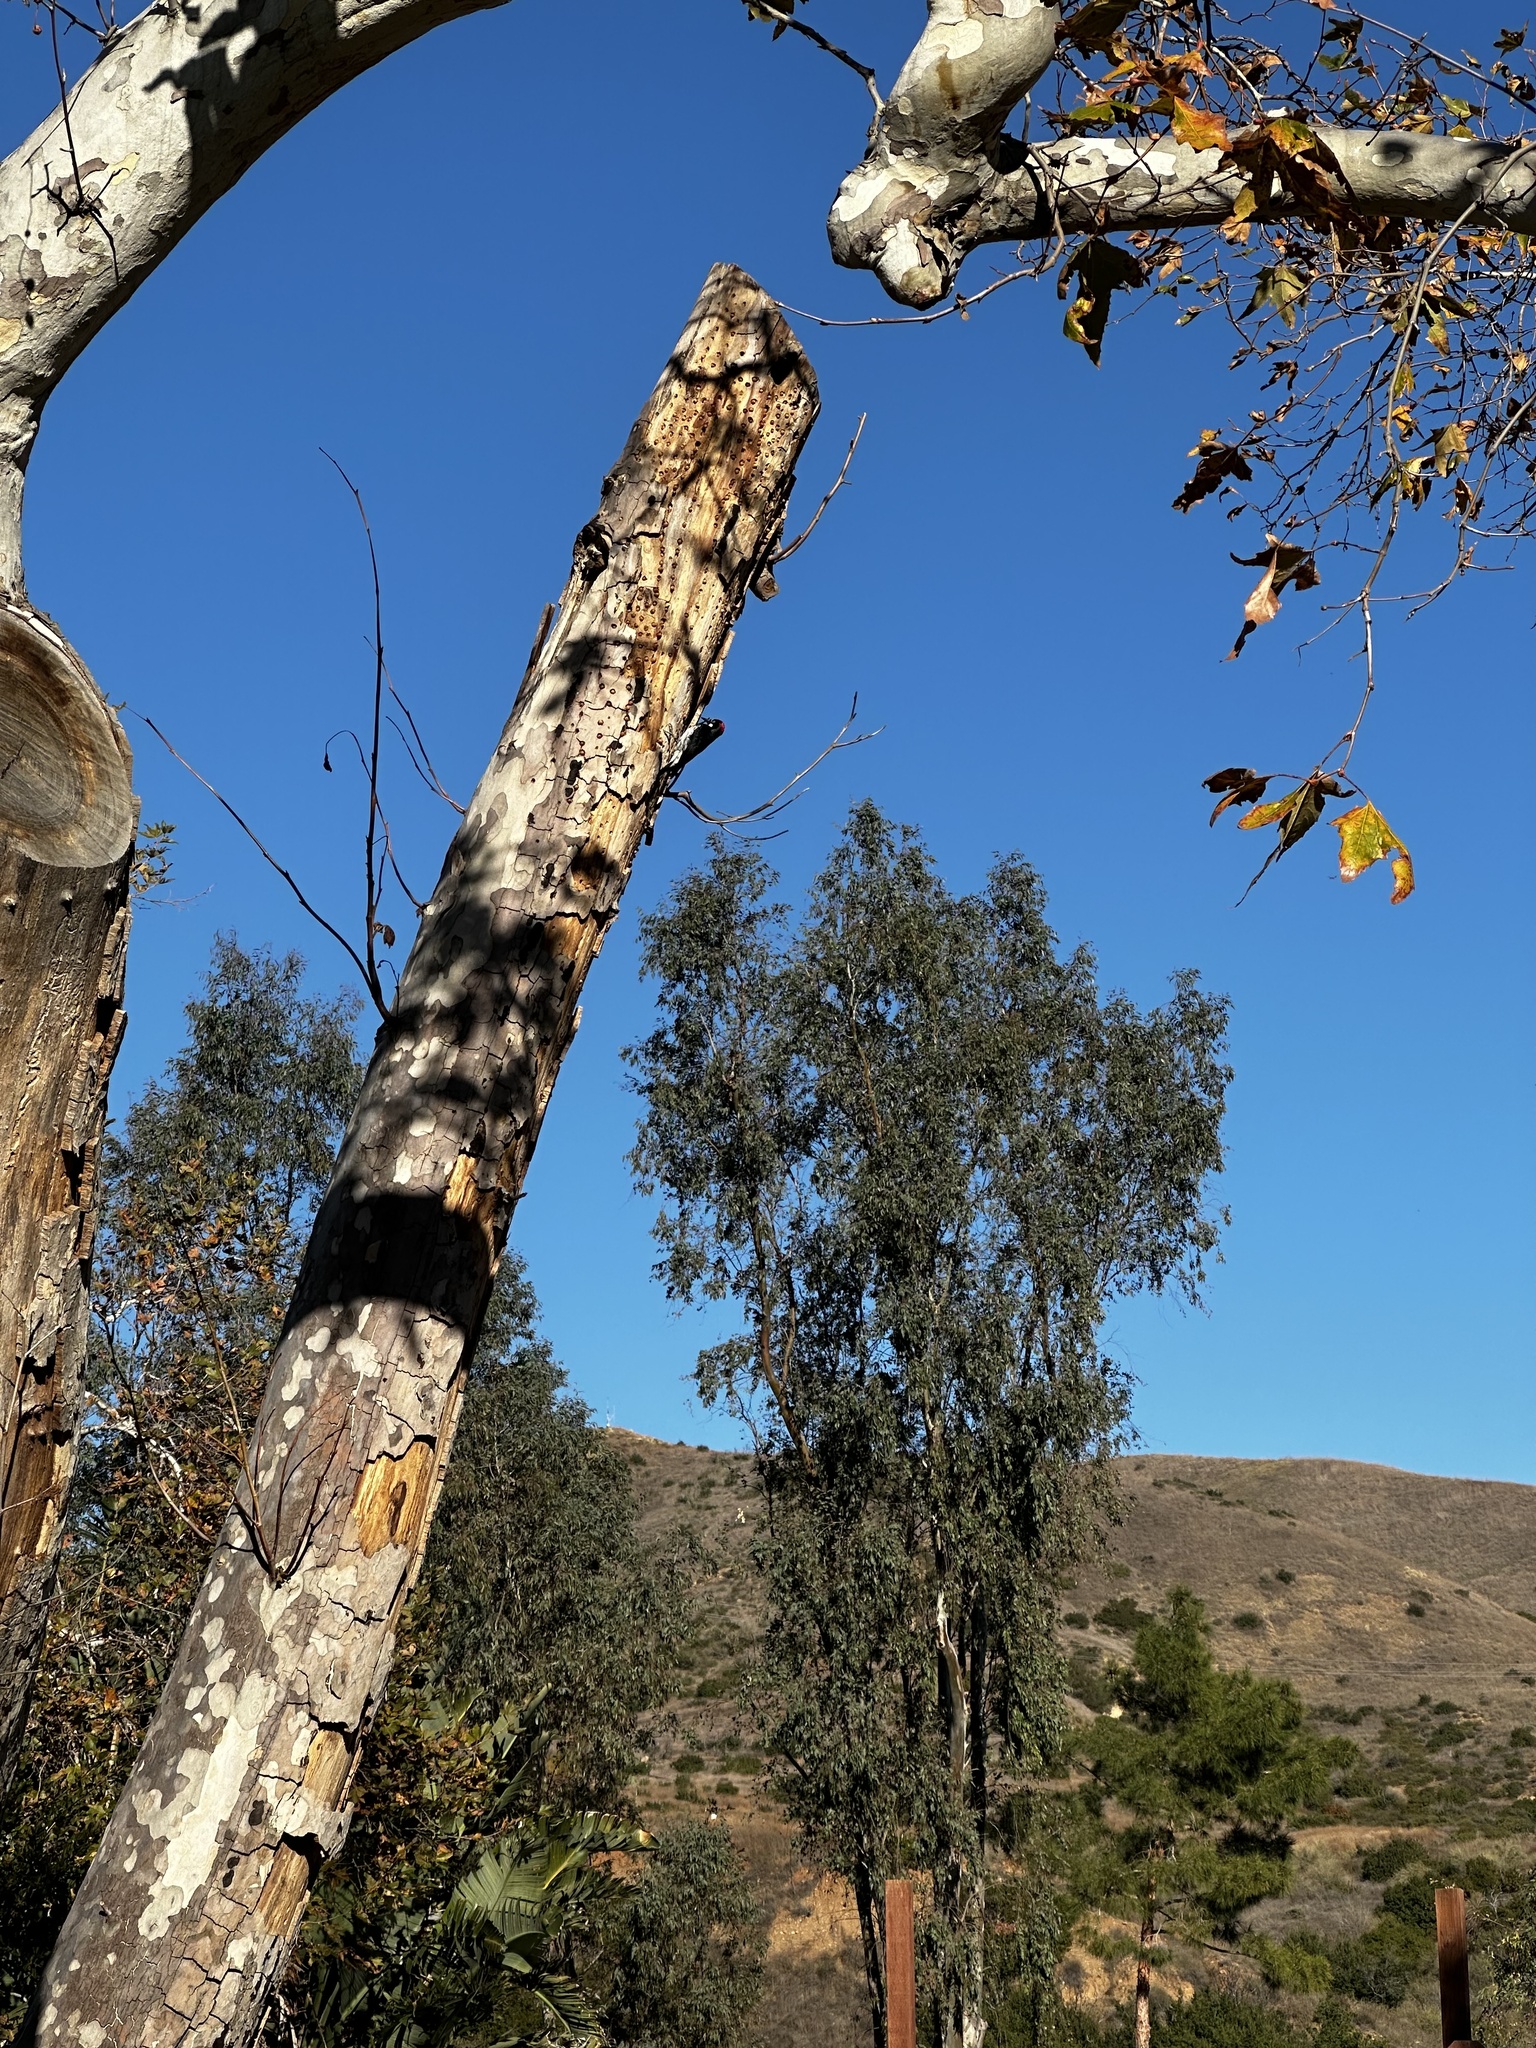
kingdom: Animalia
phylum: Chordata
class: Aves
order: Piciformes
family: Picidae
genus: Melanerpes
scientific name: Melanerpes formicivorus
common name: Acorn woodpecker
